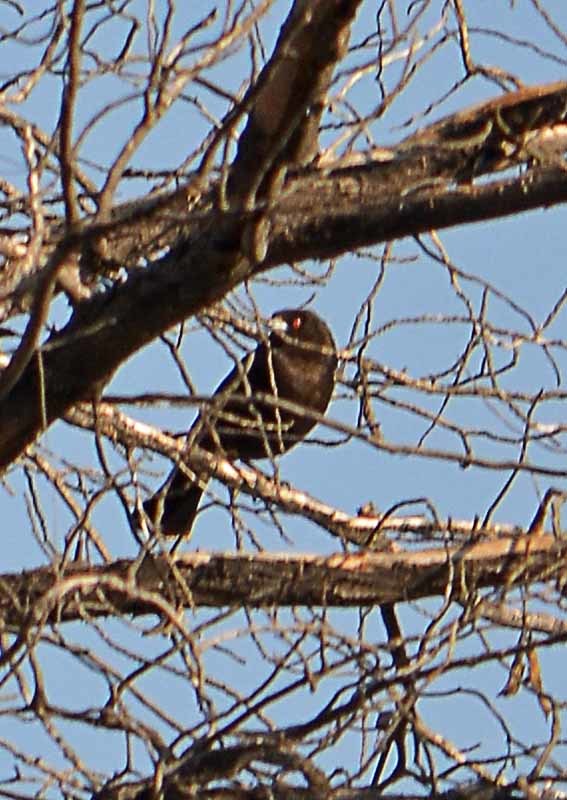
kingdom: Animalia
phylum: Chordata
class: Aves
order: Passeriformes
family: Icteridae
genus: Molothrus
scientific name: Molothrus aeneus
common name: Bronzed cowbird
